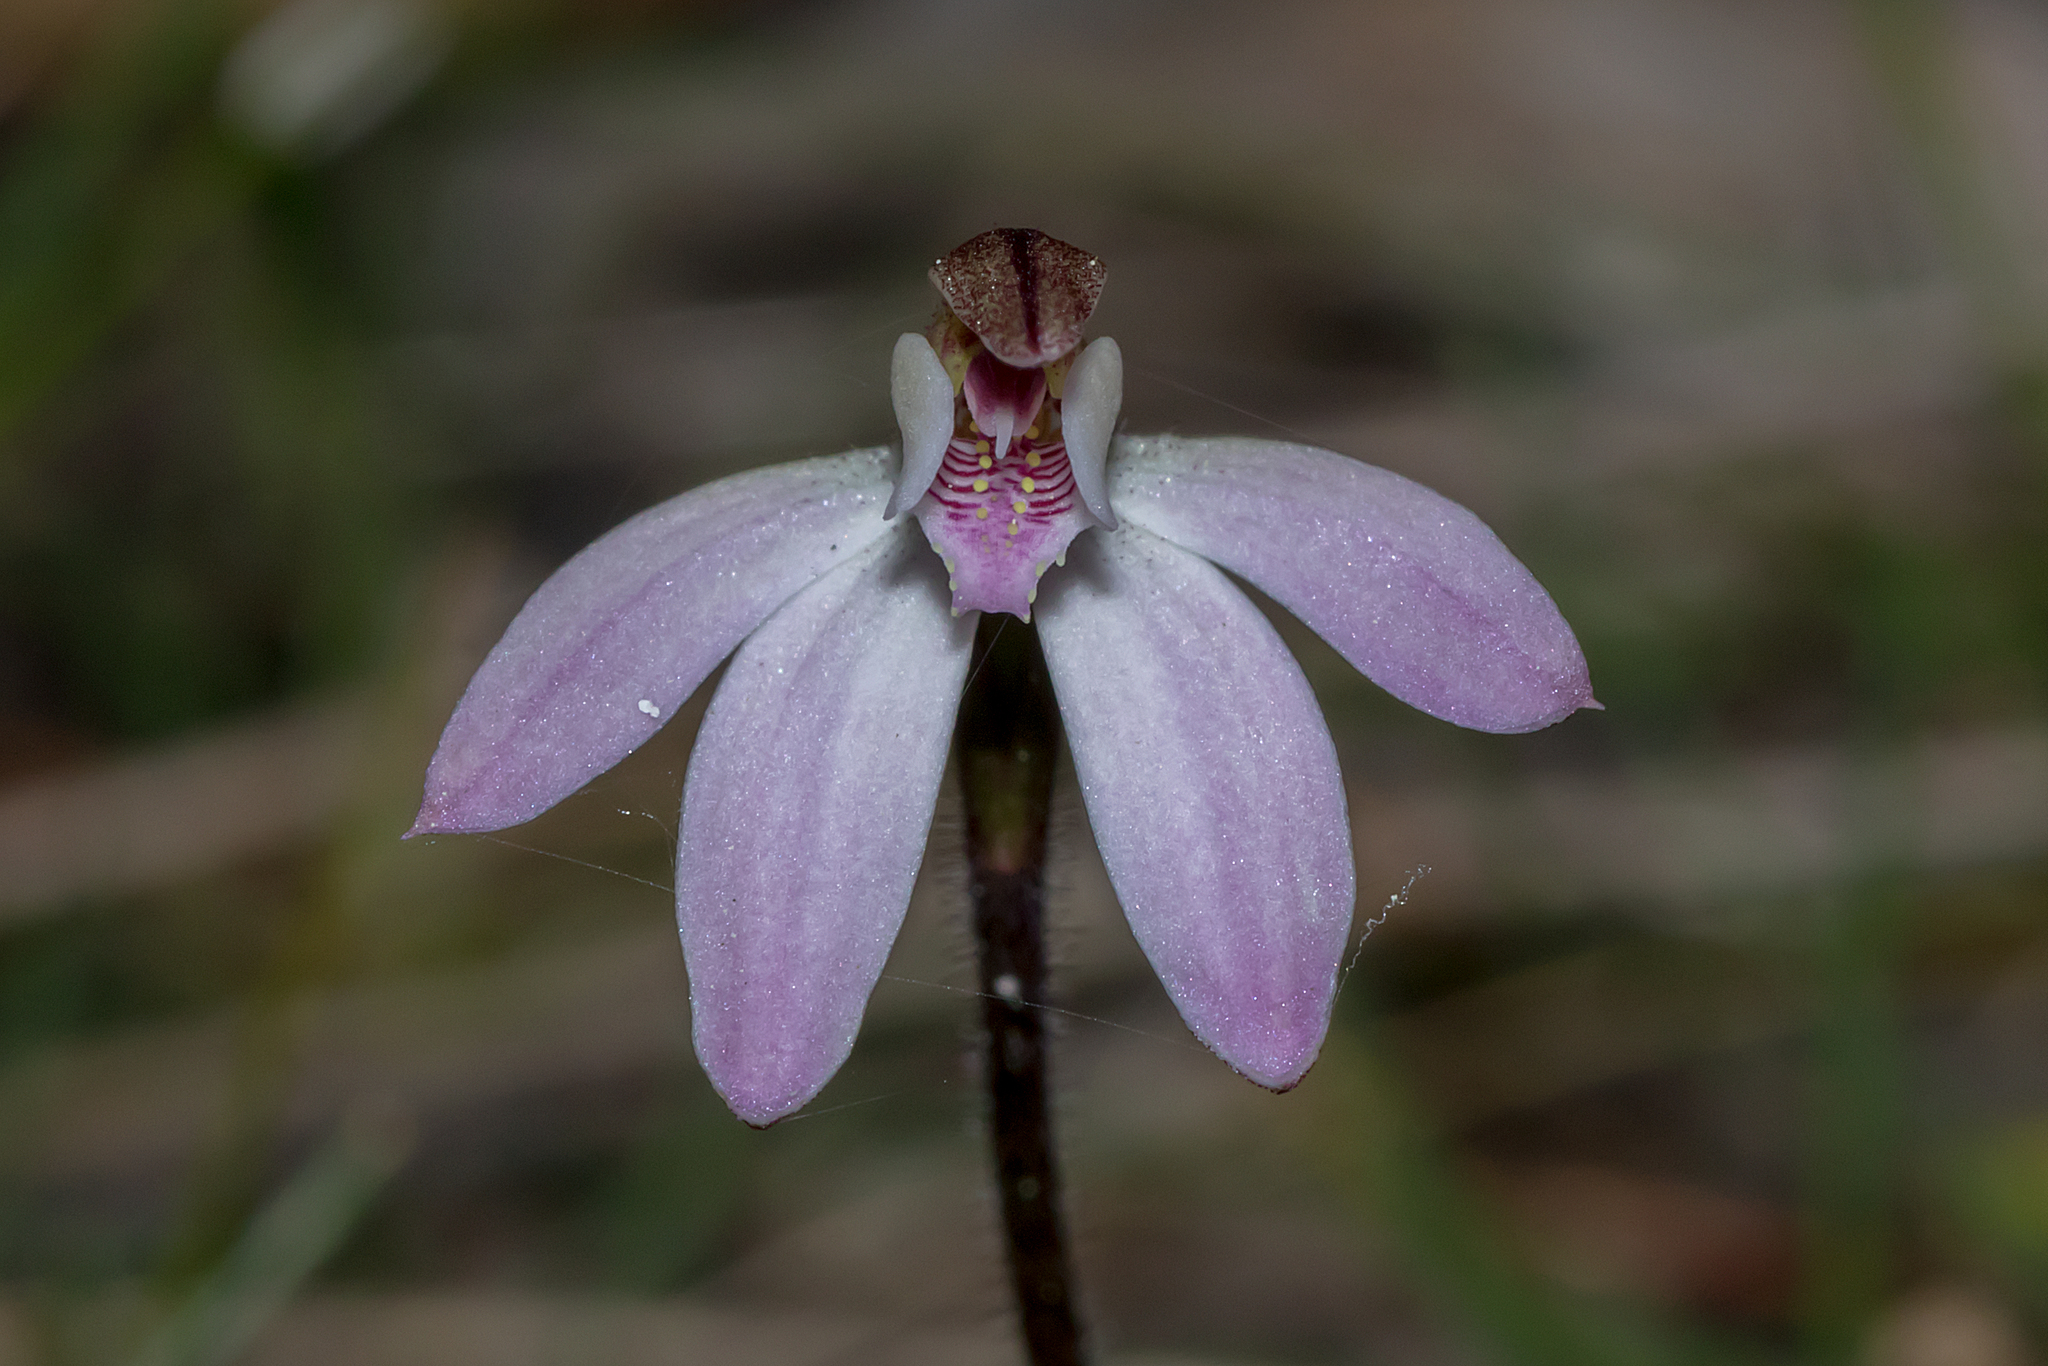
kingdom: Plantae
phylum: Tracheophyta
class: Liliopsida
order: Asparagales
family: Orchidaceae
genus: Caladenia
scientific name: Caladenia fuscata
